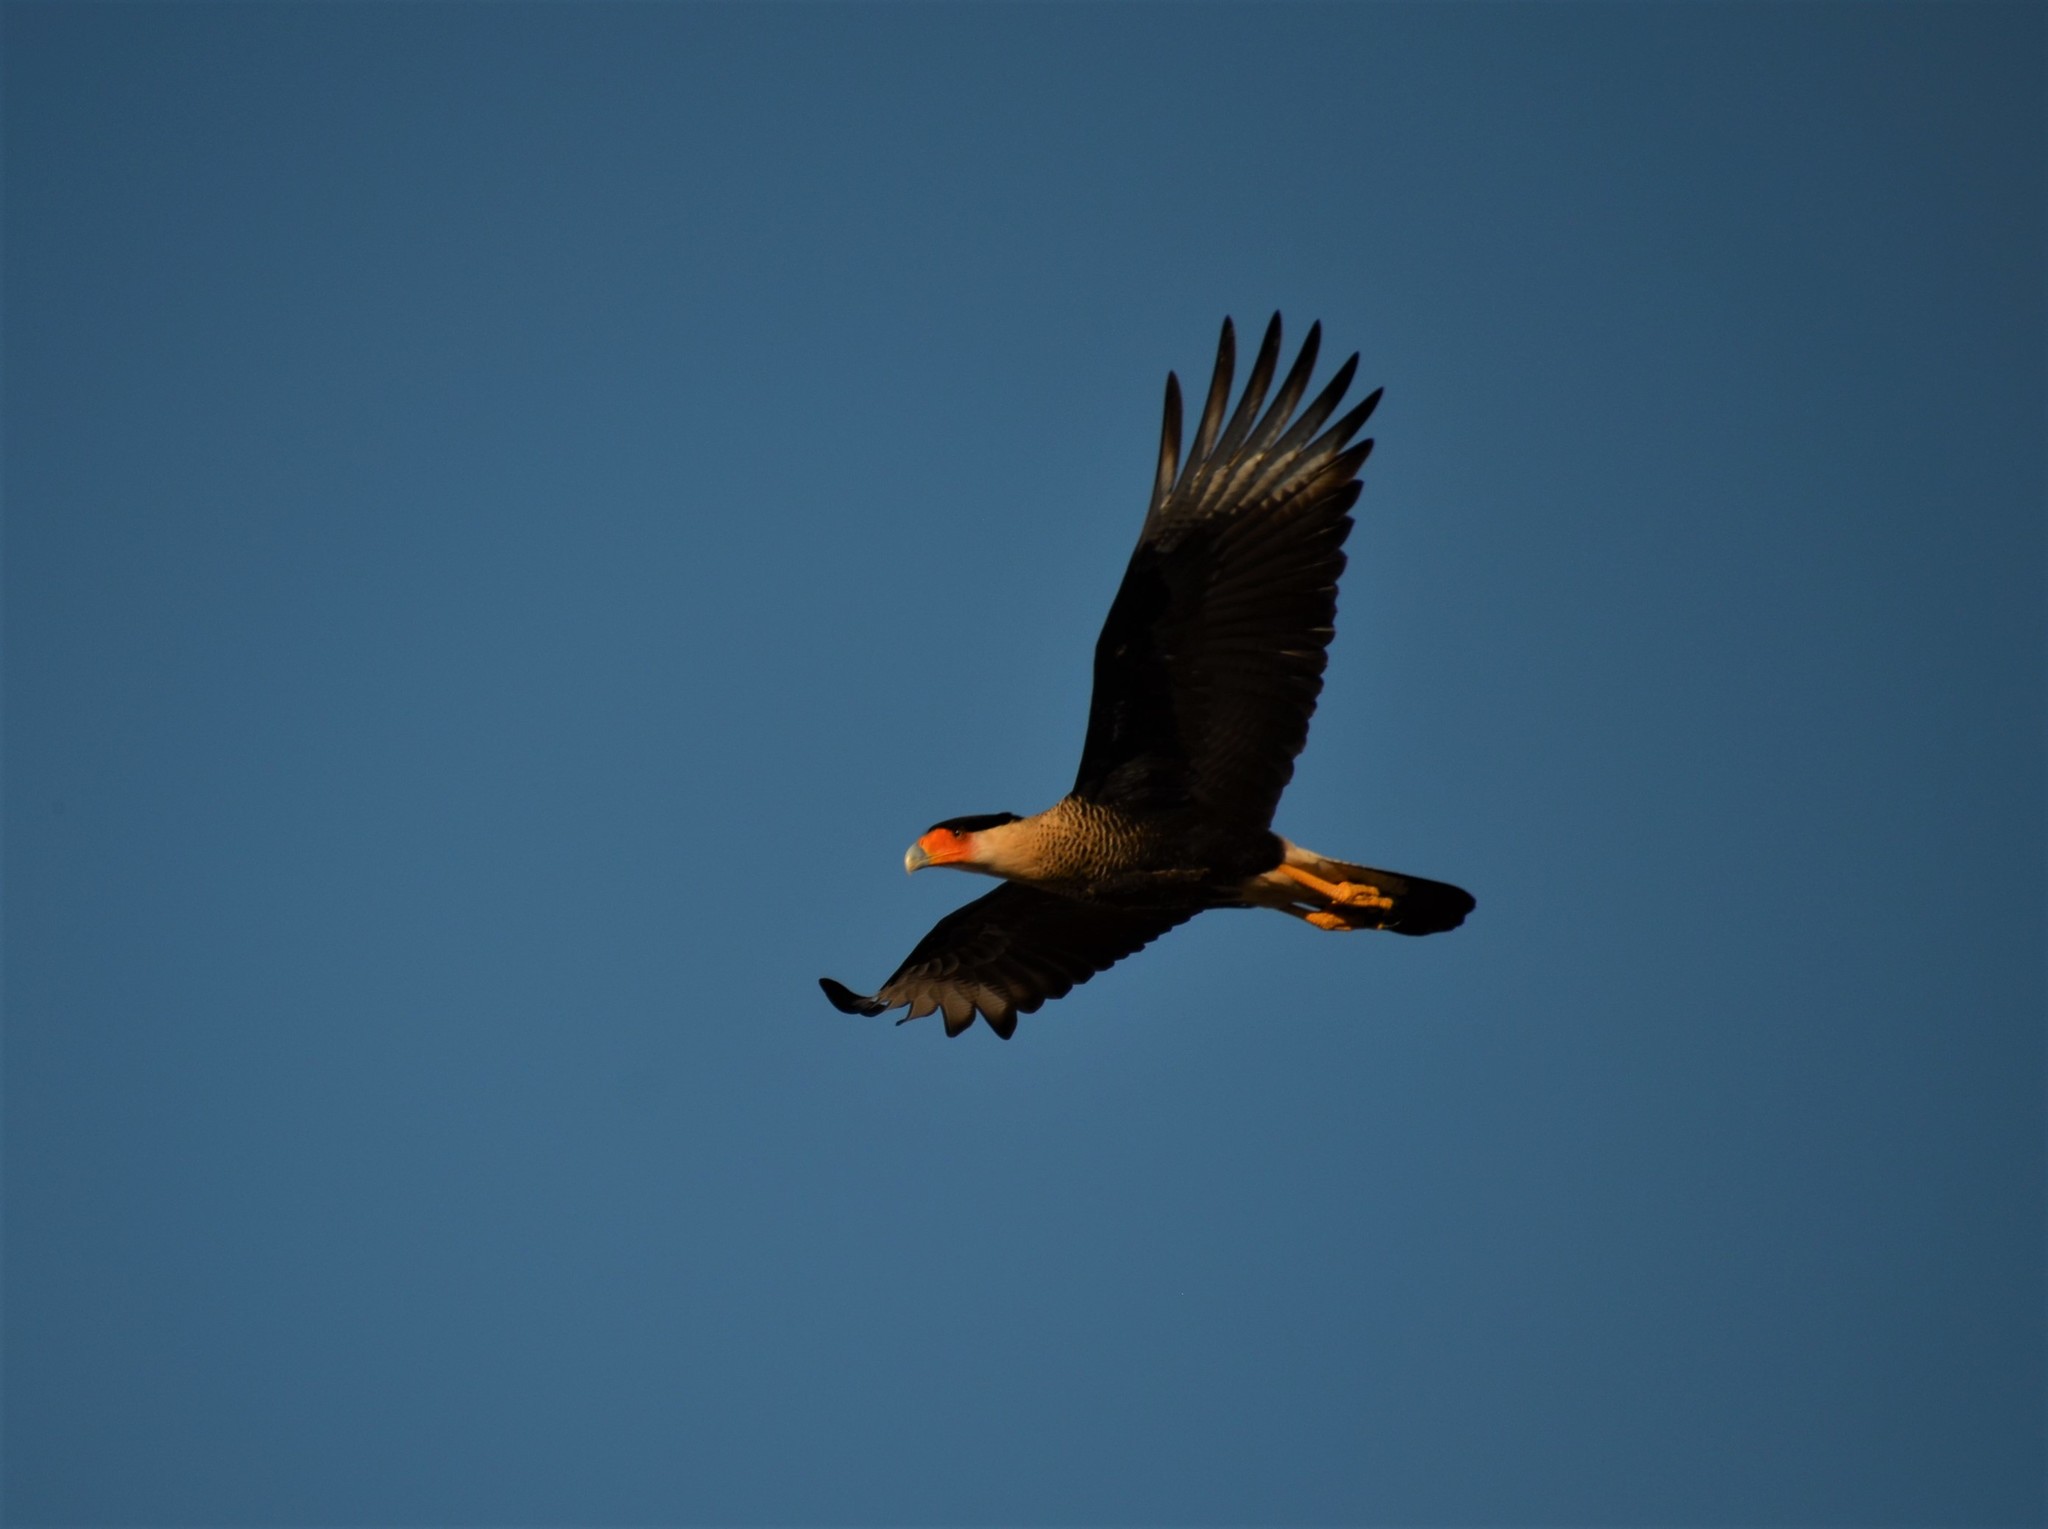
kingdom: Animalia
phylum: Chordata
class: Aves
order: Falconiformes
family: Falconidae
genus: Caracara
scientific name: Caracara plancus
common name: Southern caracara
